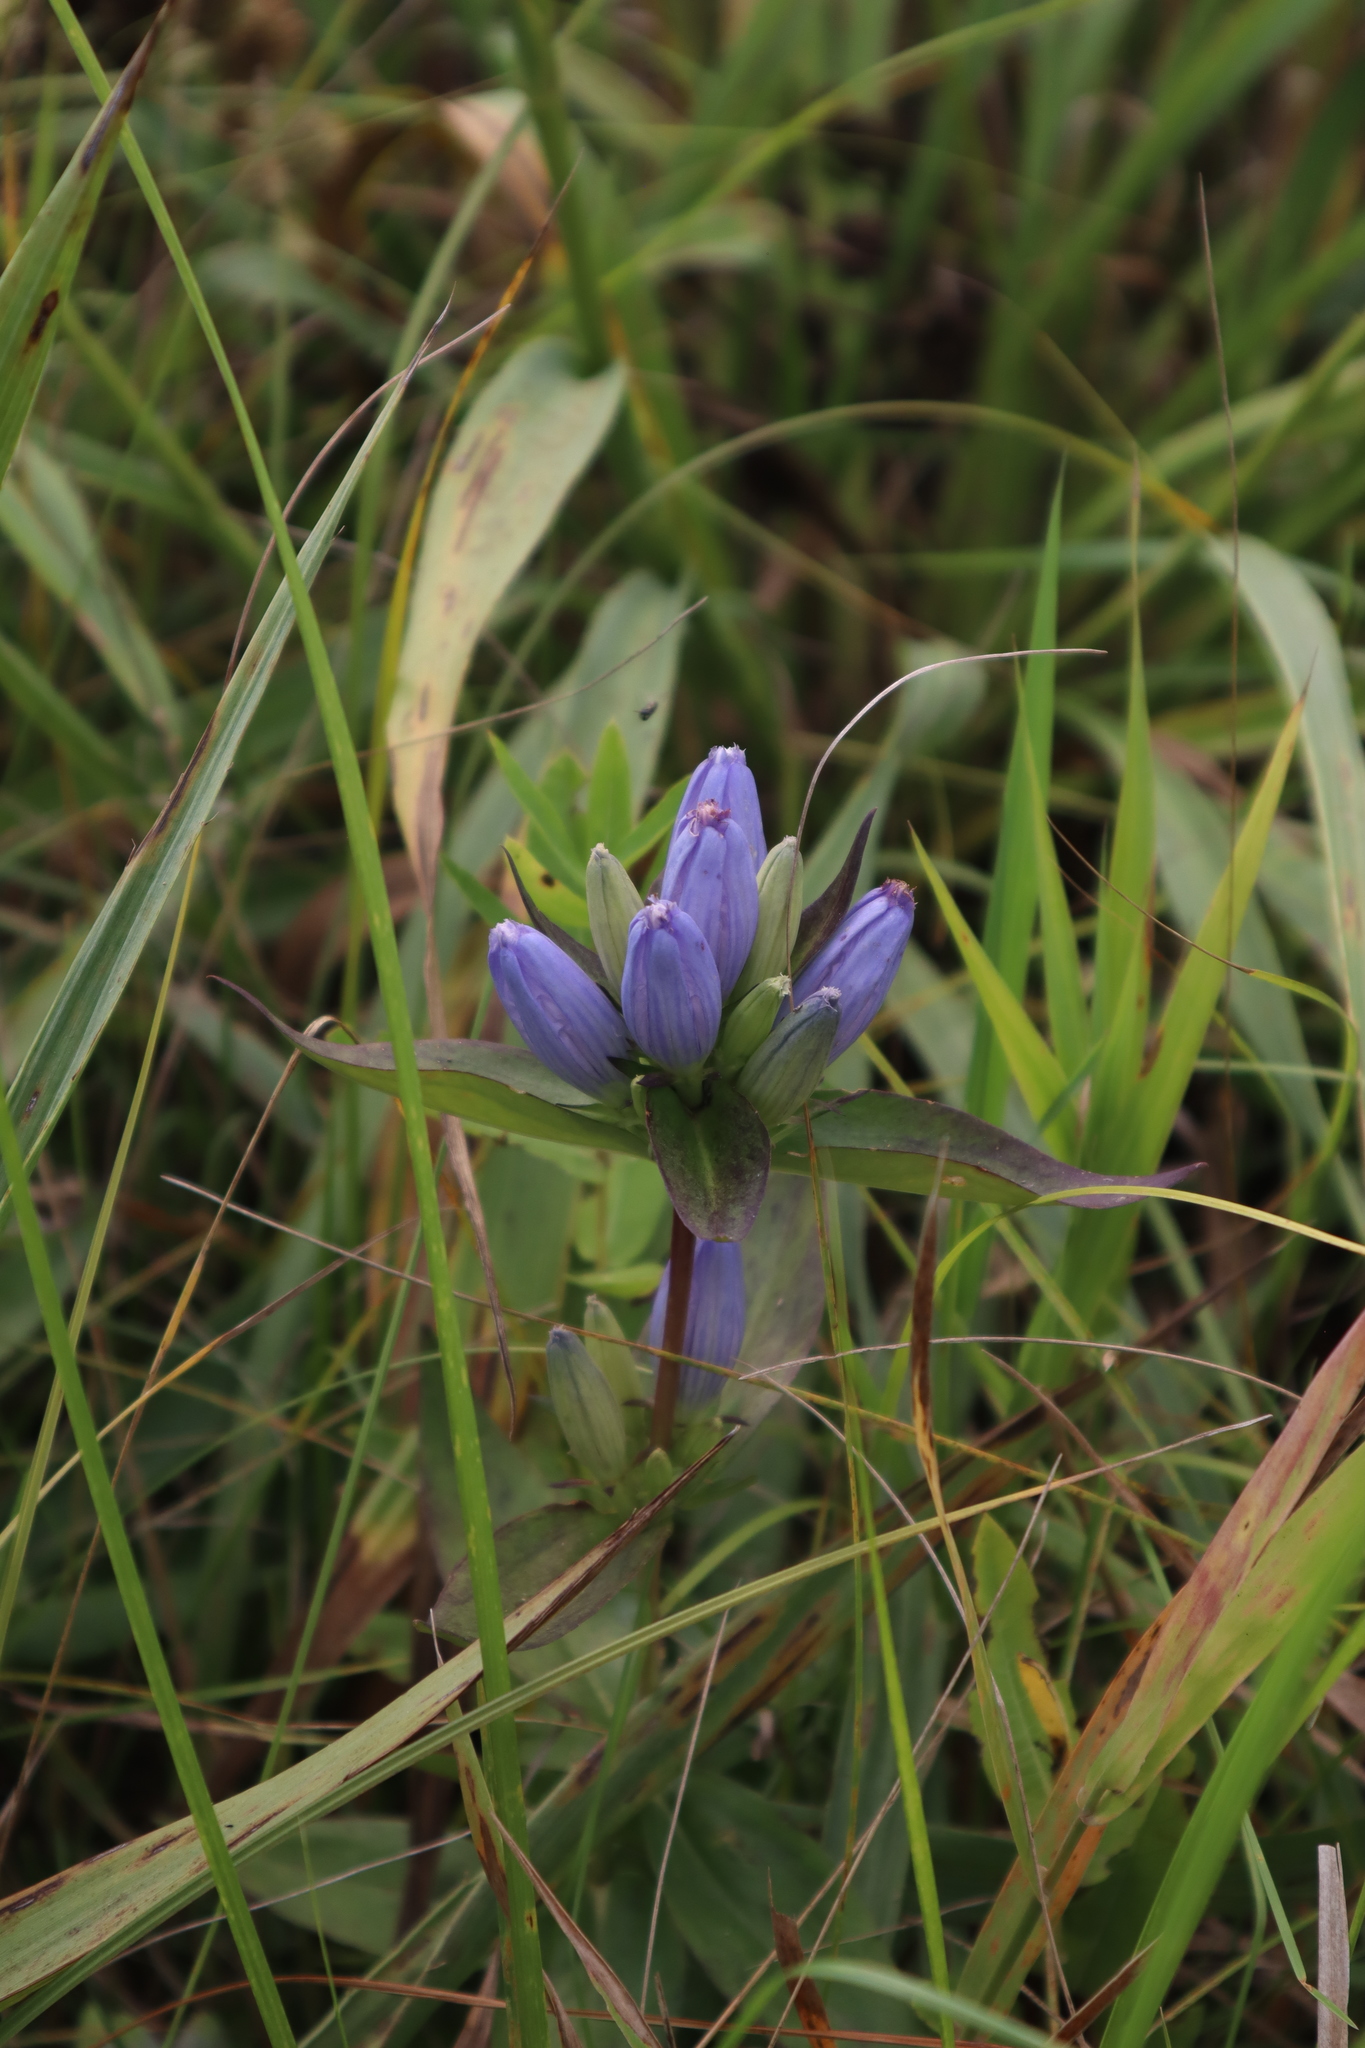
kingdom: Plantae
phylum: Tracheophyta
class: Magnoliopsida
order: Gentianales
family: Gentianaceae
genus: Gentiana
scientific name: Gentiana andrewsii
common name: Bottle gentian
